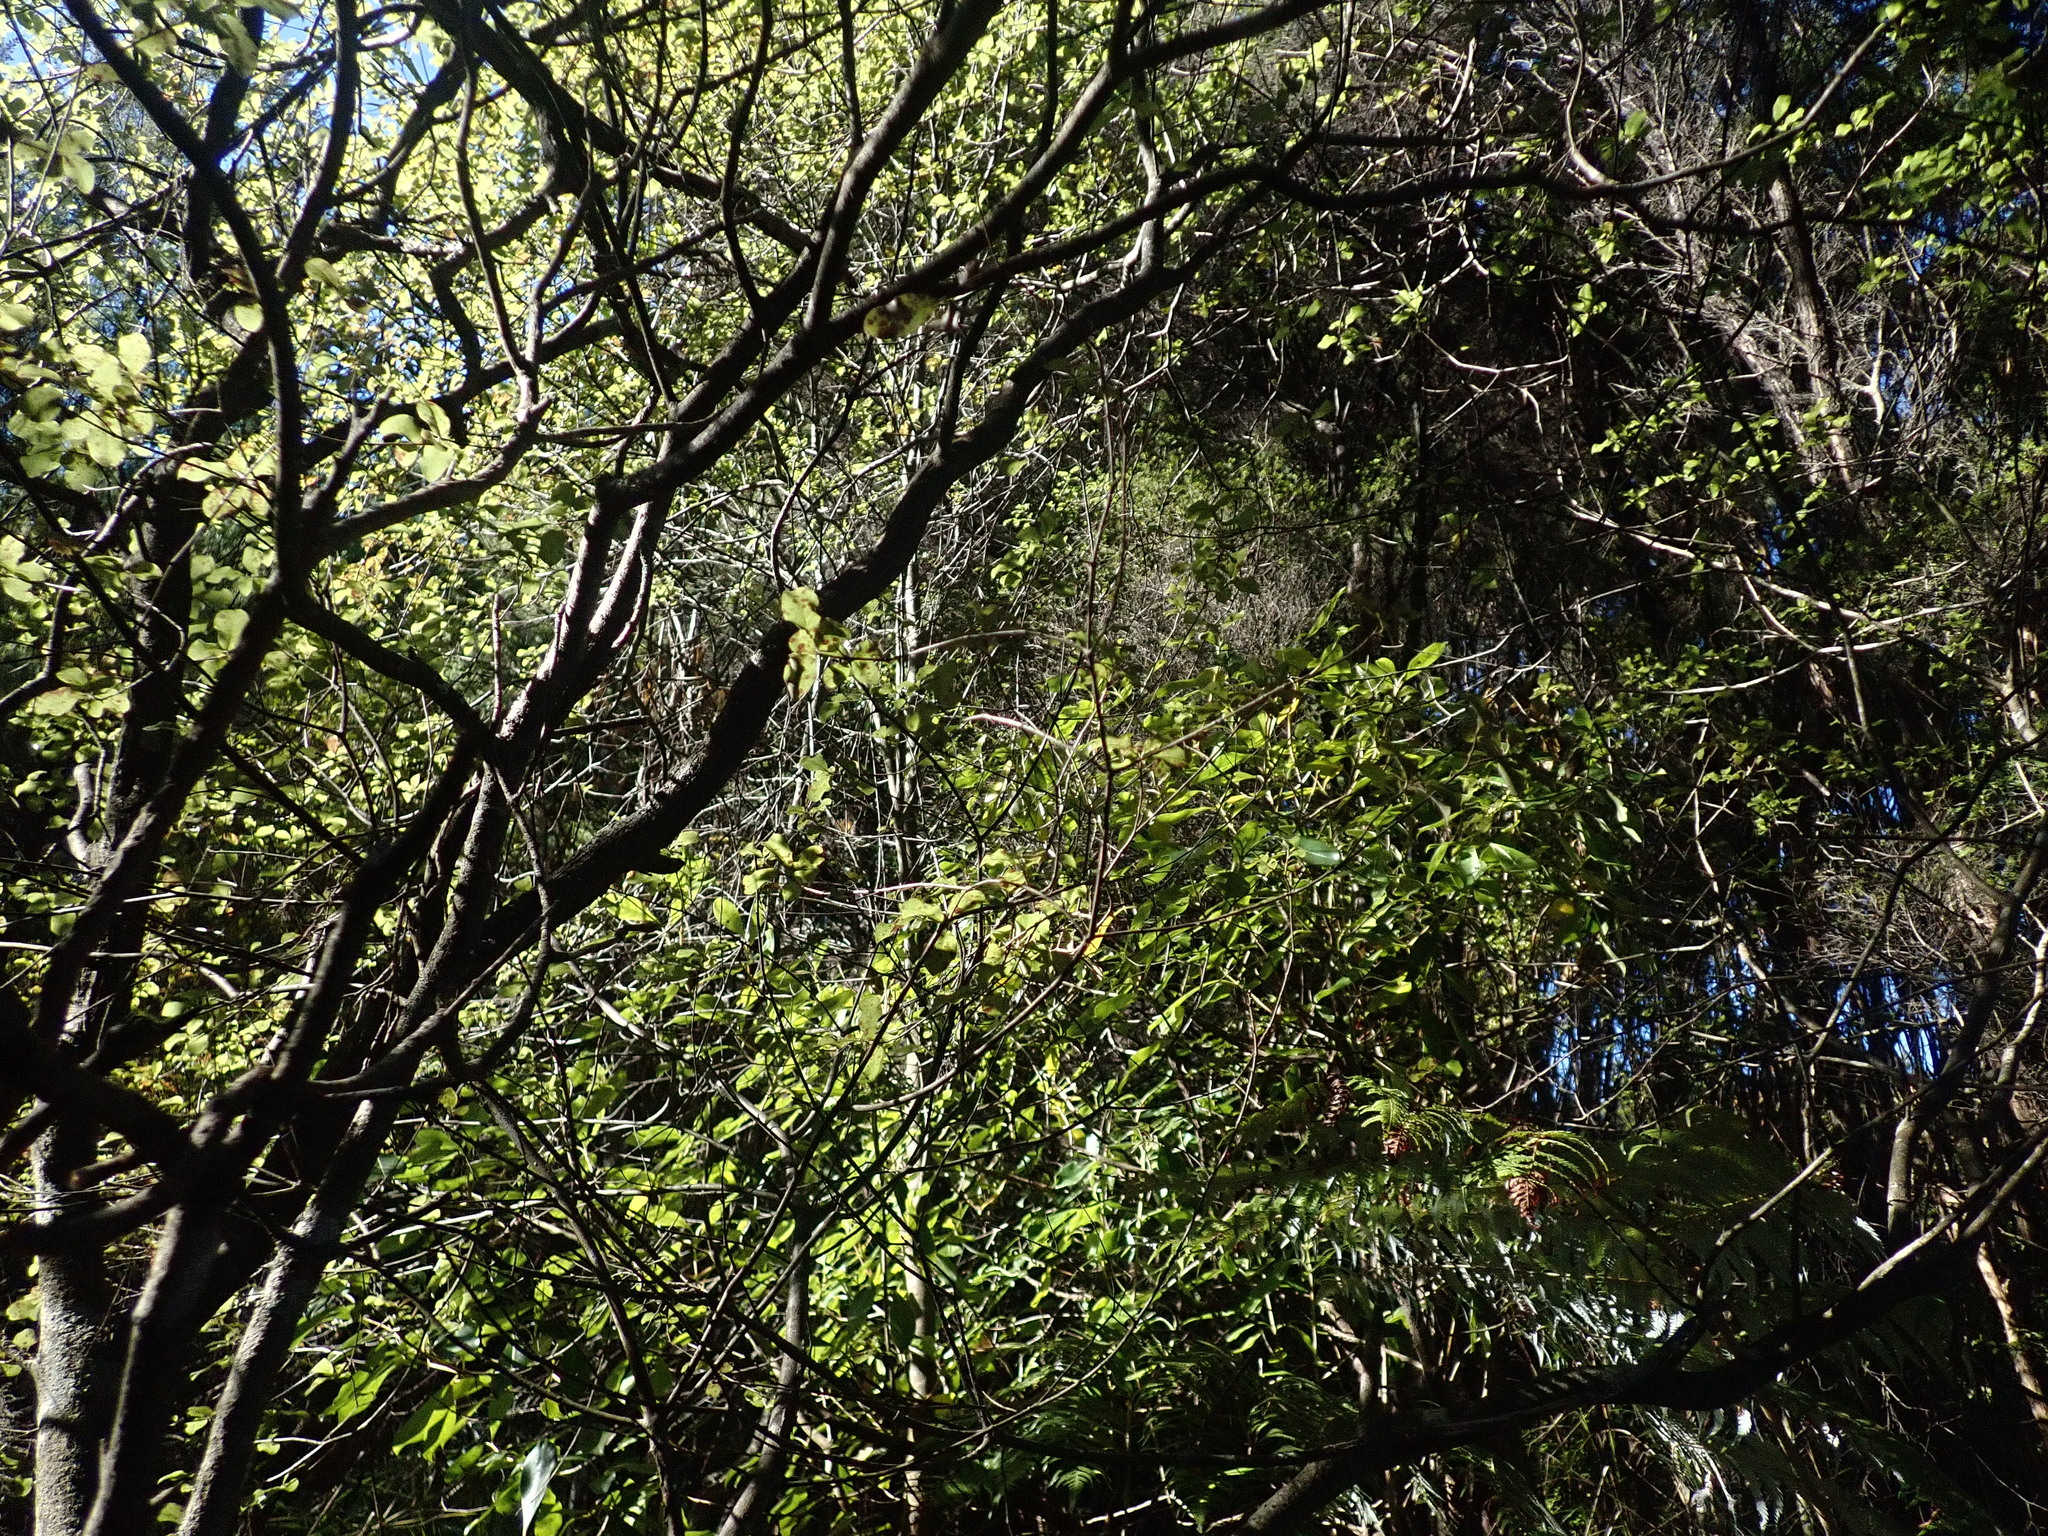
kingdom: Plantae
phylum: Tracheophyta
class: Magnoliopsida
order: Apiales
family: Pittosporaceae
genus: Pittosporum
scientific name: Pittosporum tenuifolium
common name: Kohuhu
